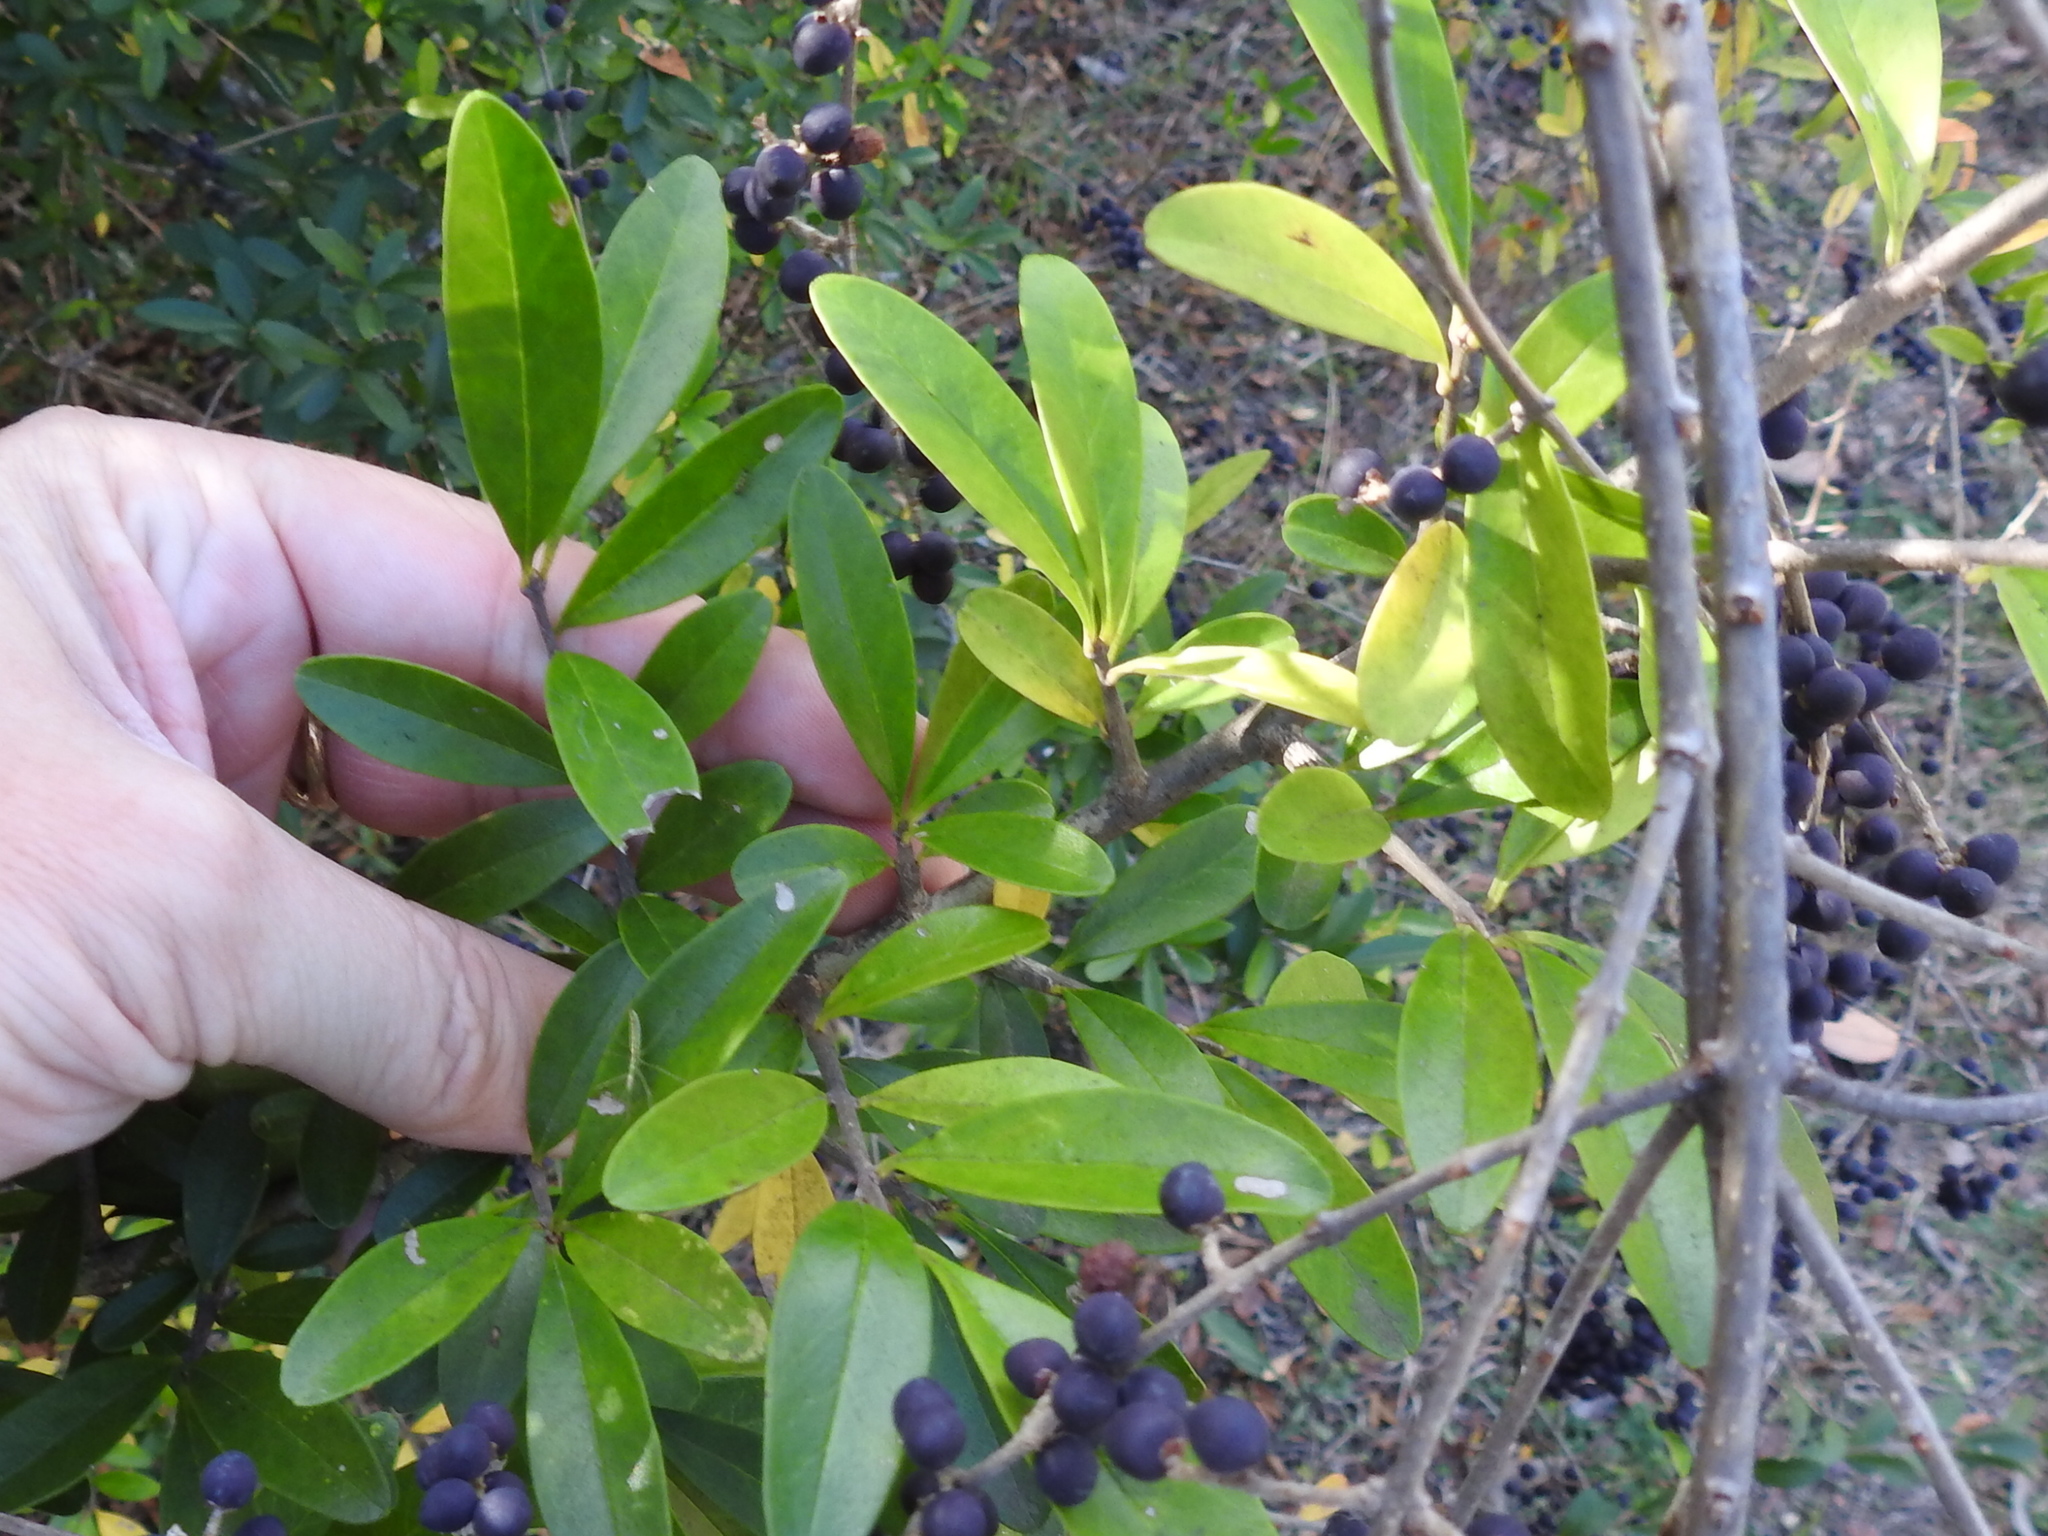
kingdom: Plantae
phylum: Tracheophyta
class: Magnoliopsida
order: Lamiales
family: Oleaceae
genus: Ligustrum
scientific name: Ligustrum quihoui
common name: Waxyleaf privet
